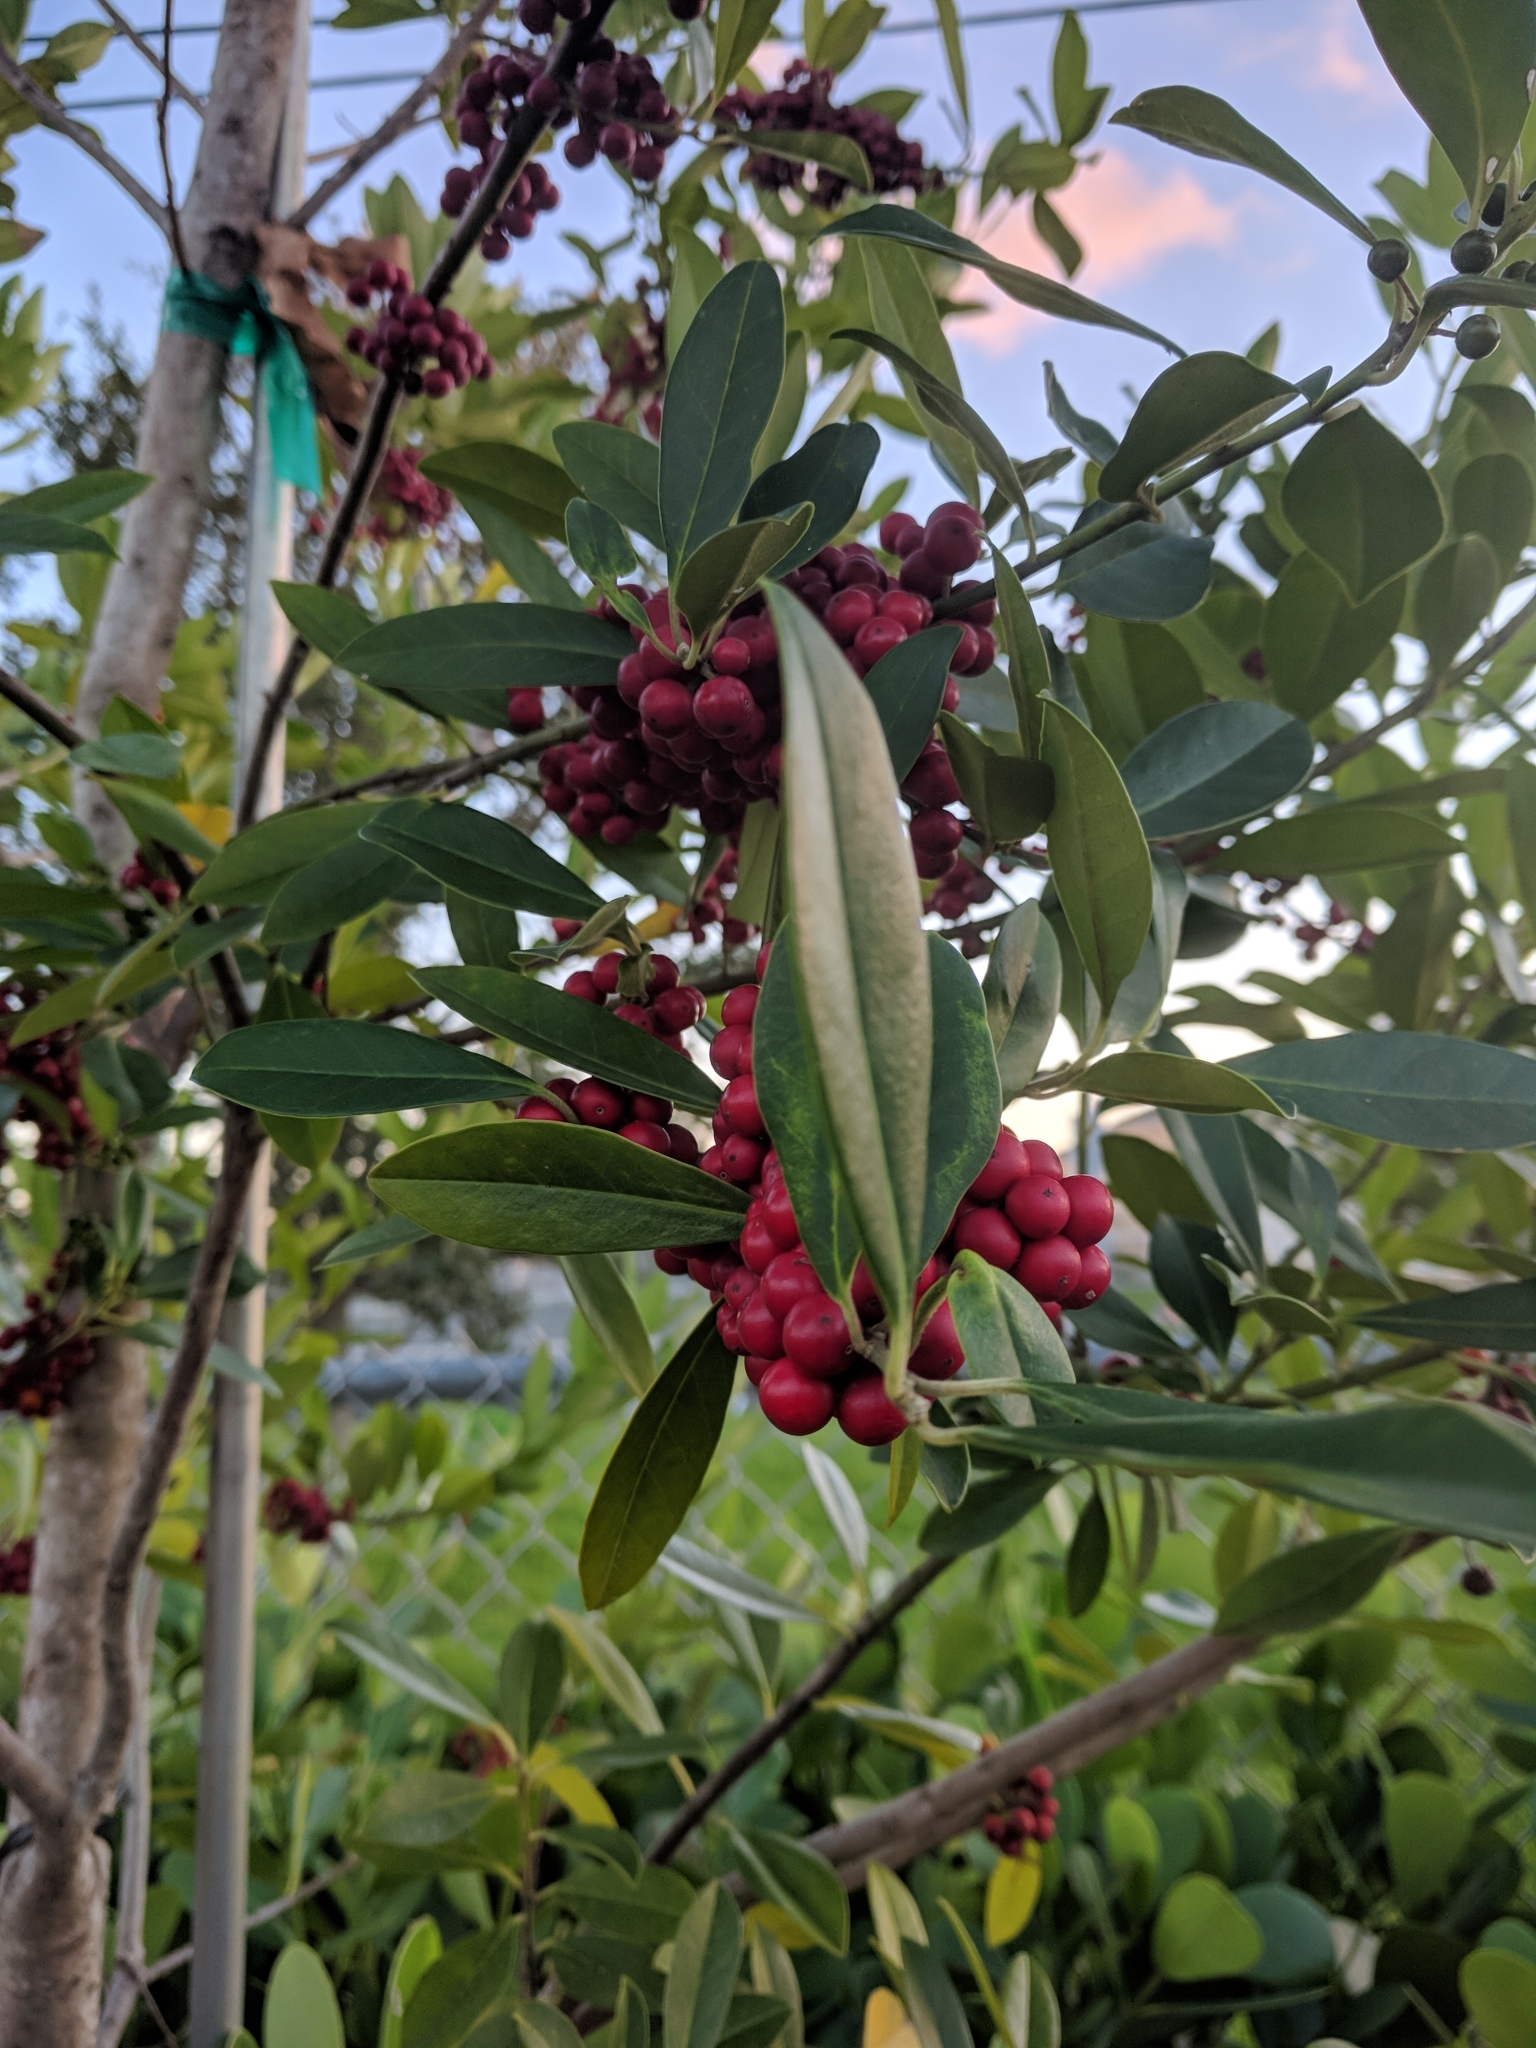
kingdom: Plantae
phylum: Tracheophyta
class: Magnoliopsida
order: Aquifoliales
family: Aquifoliaceae
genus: Ilex
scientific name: Ilex cassine
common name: Dahoon
